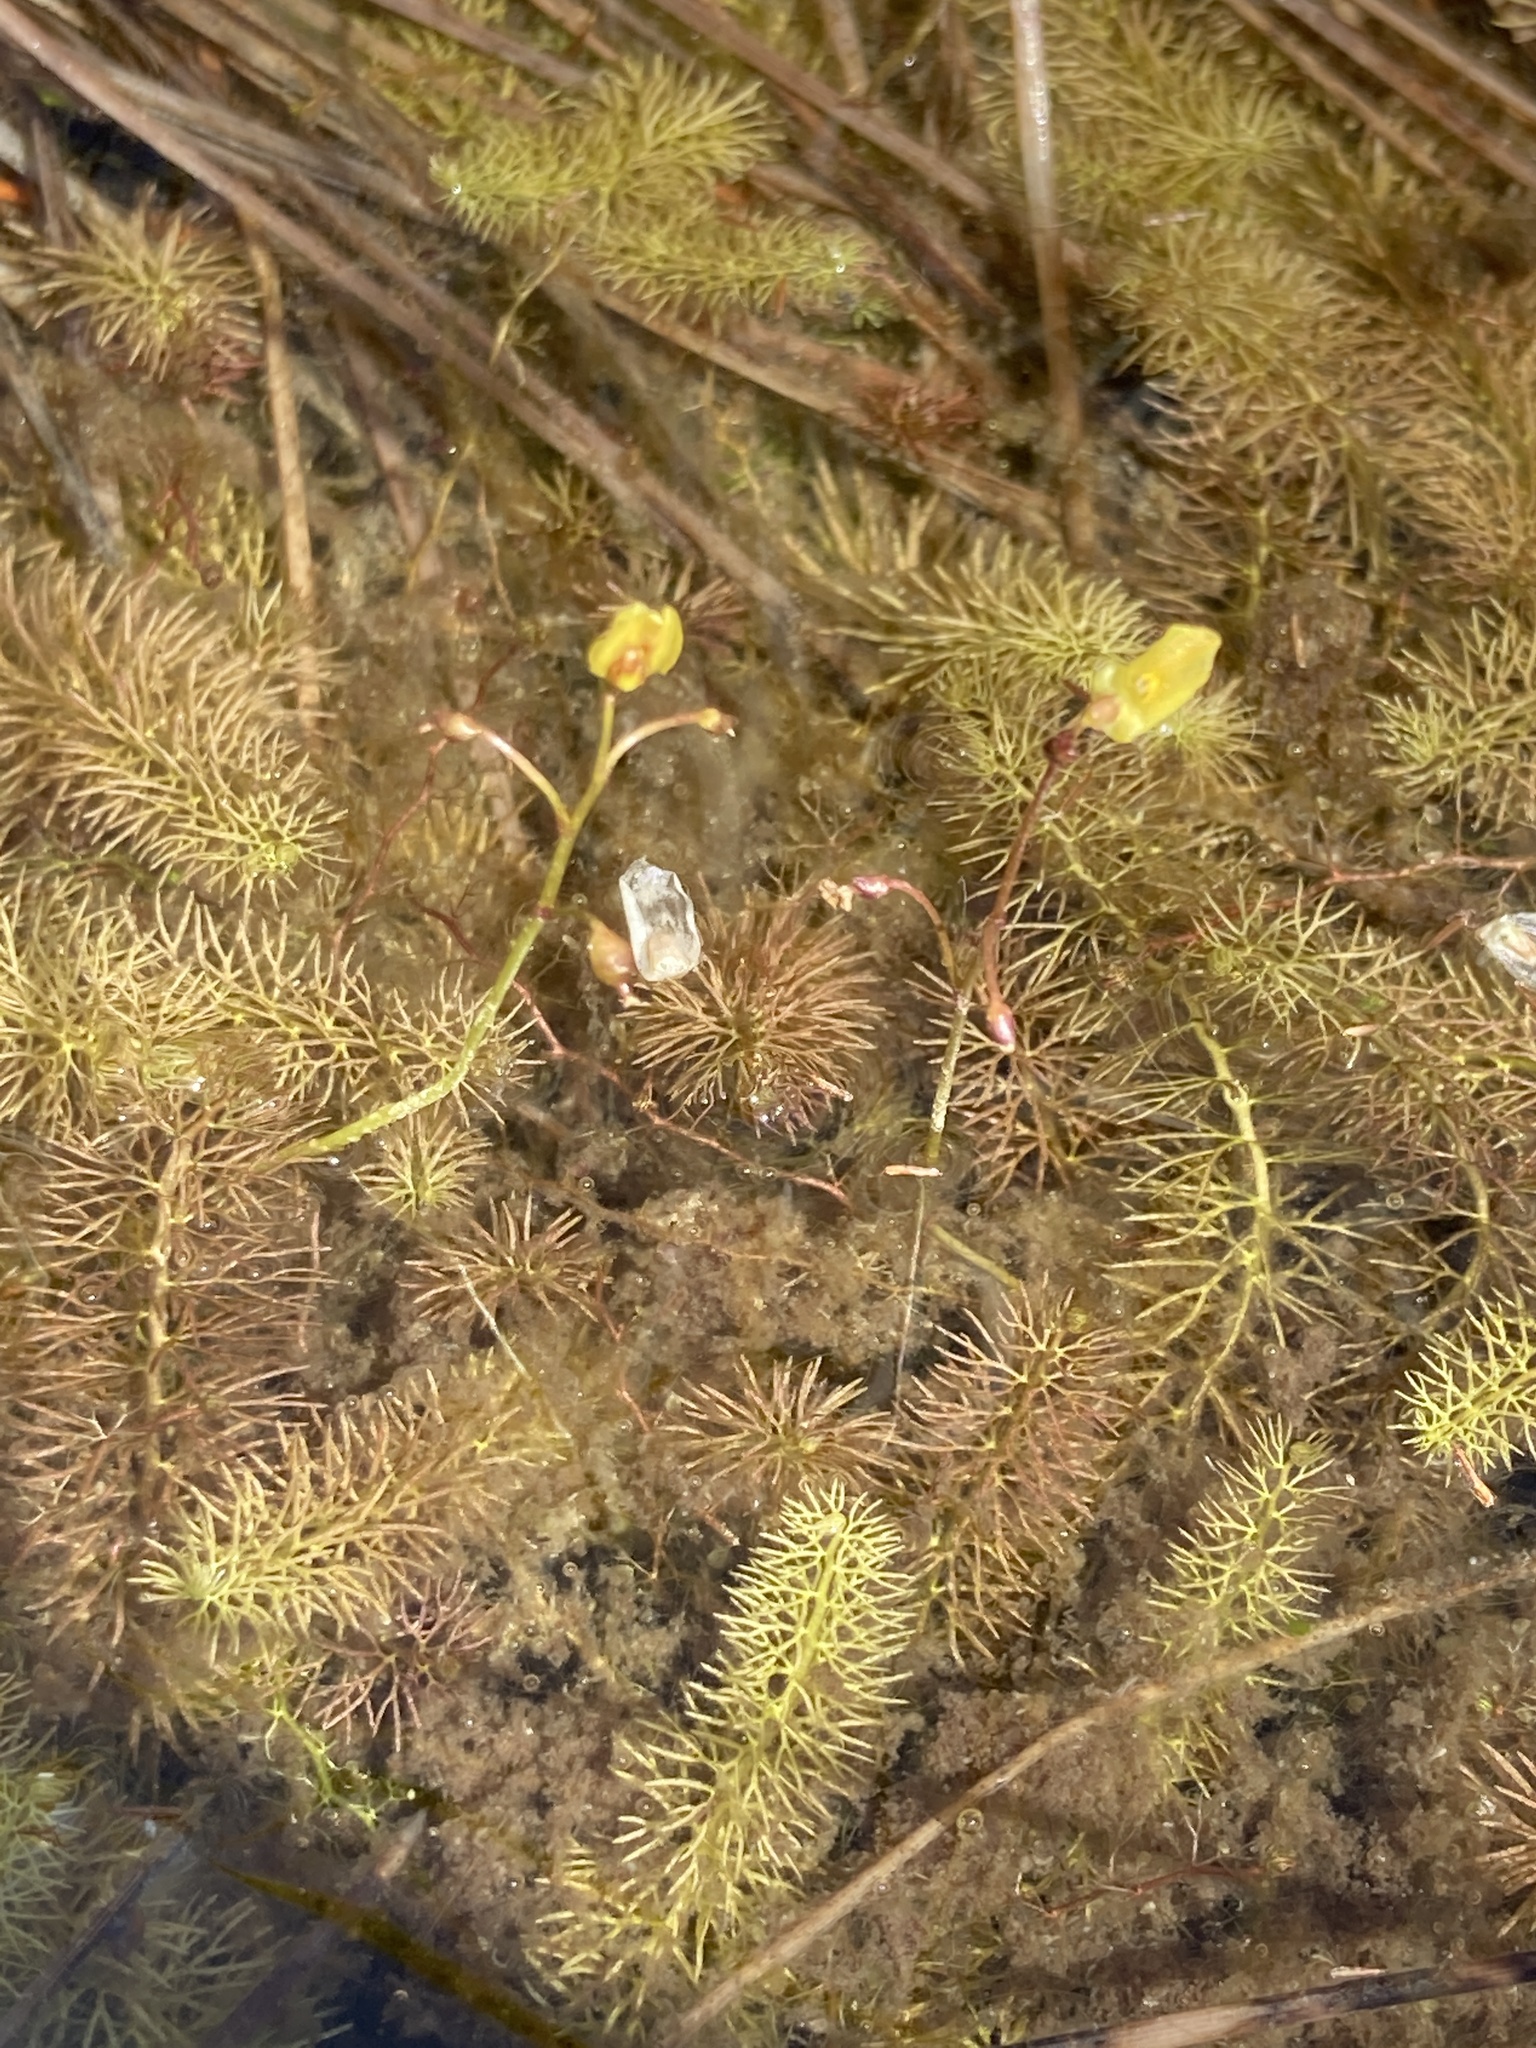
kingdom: Plantae
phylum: Tracheophyta
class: Magnoliopsida
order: Lamiales
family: Lentibulariaceae
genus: Utricularia
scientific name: Utricularia minor
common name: Lesser bladderwort
